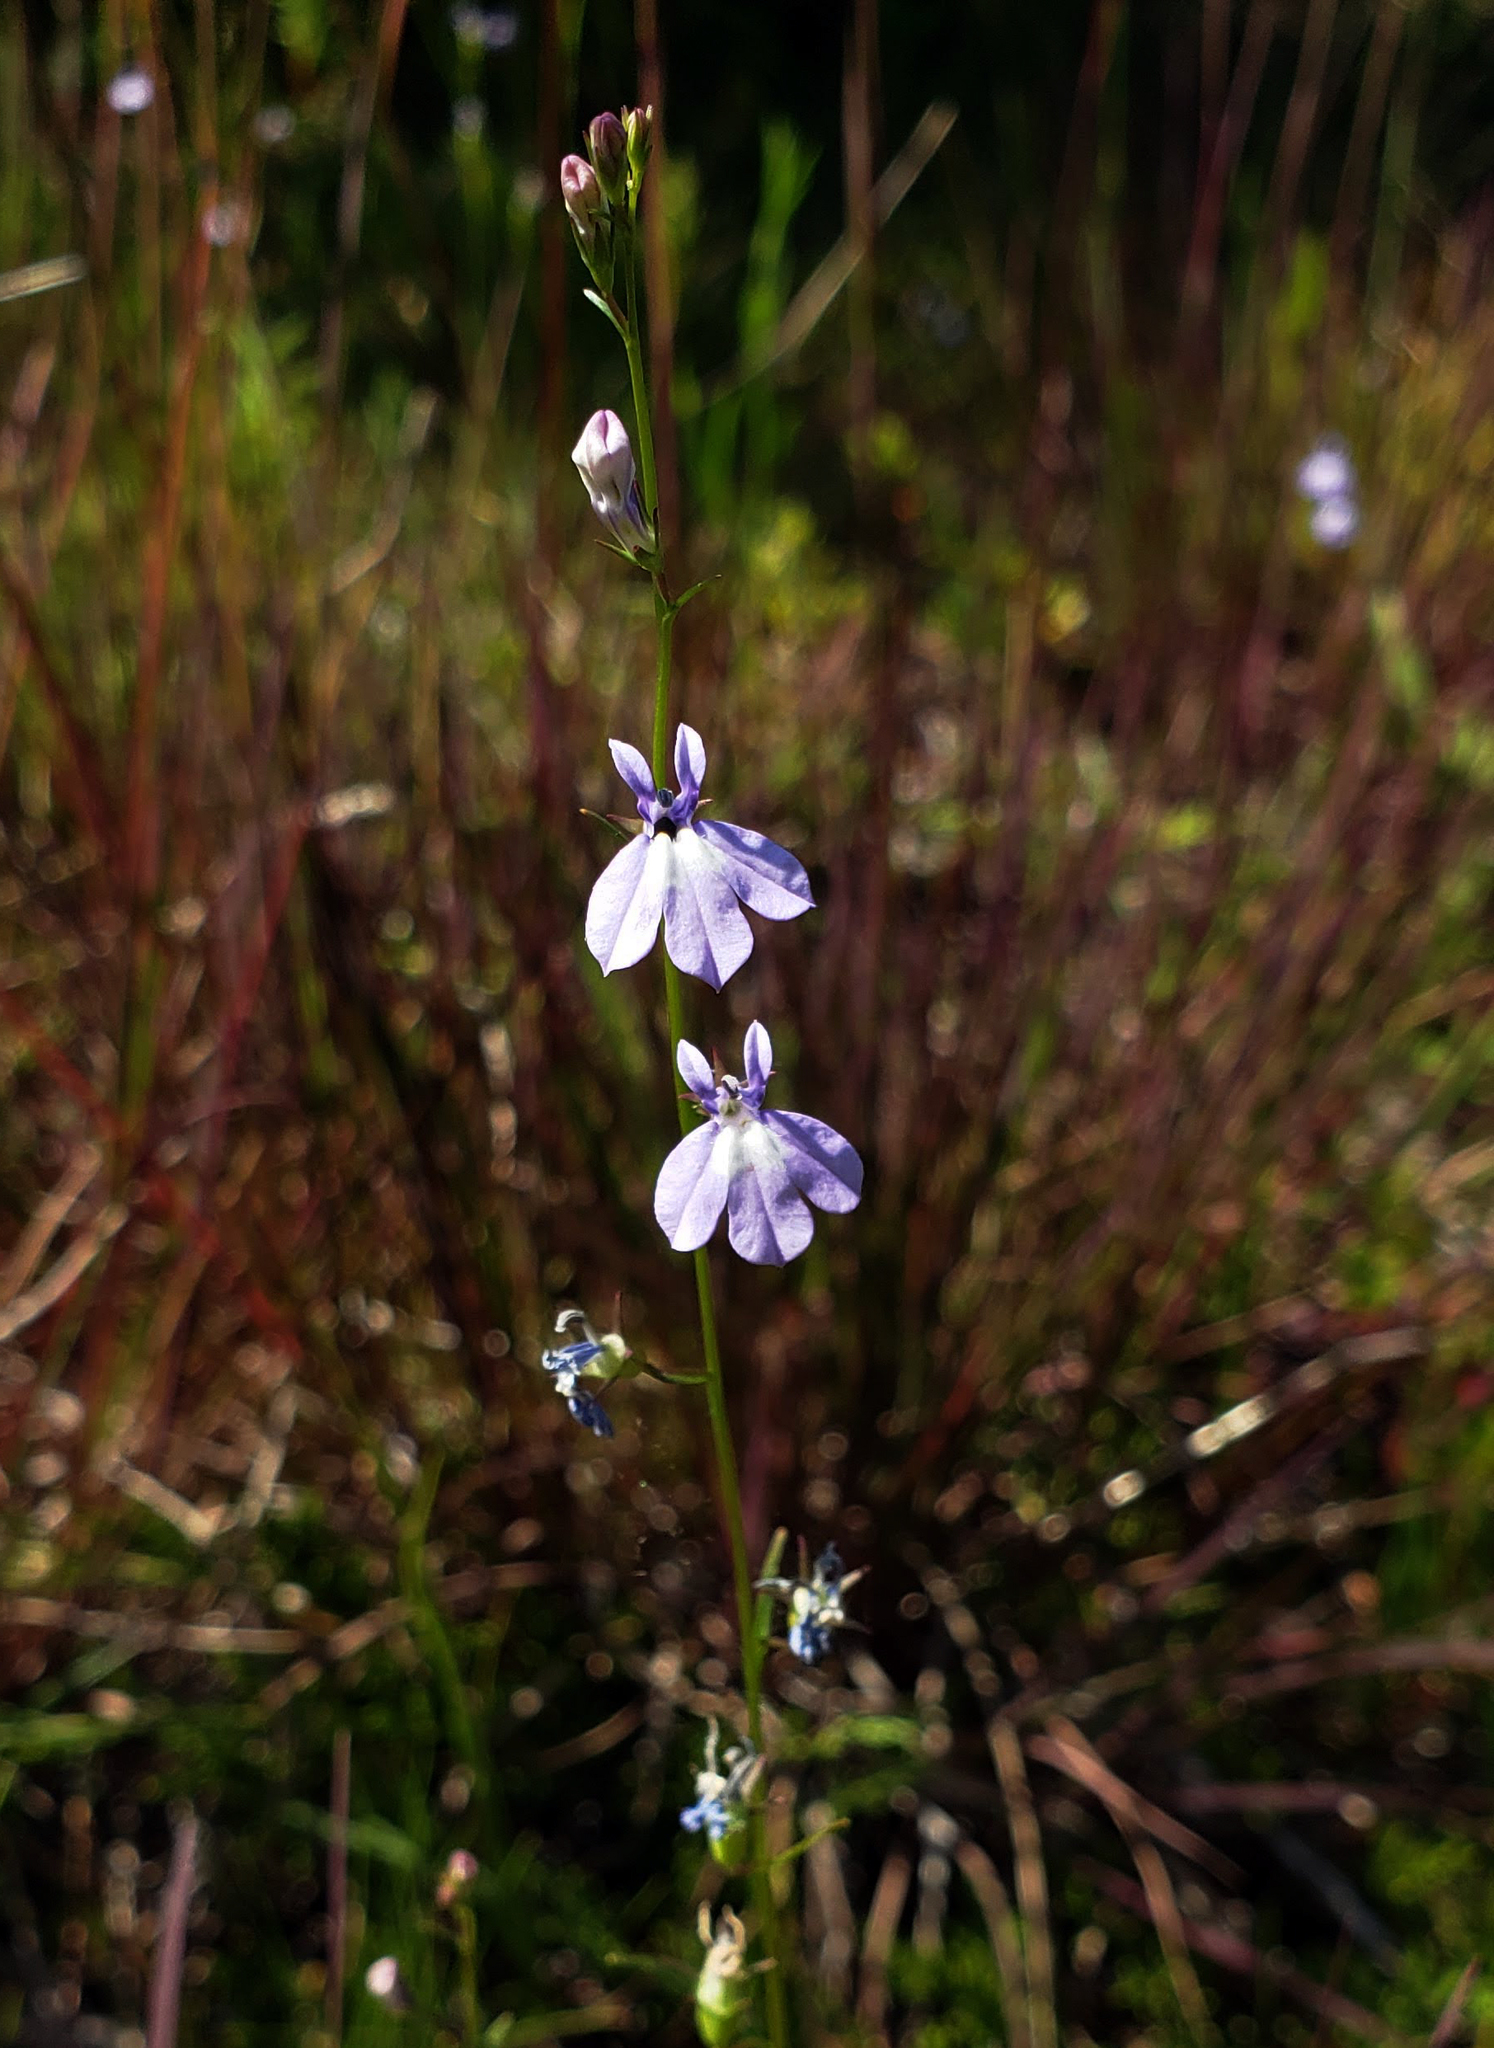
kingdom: Plantae
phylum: Tracheophyta
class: Magnoliopsida
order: Asterales
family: Campanulaceae
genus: Lobelia
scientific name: Lobelia kalmii
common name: Kalm's lobelia
